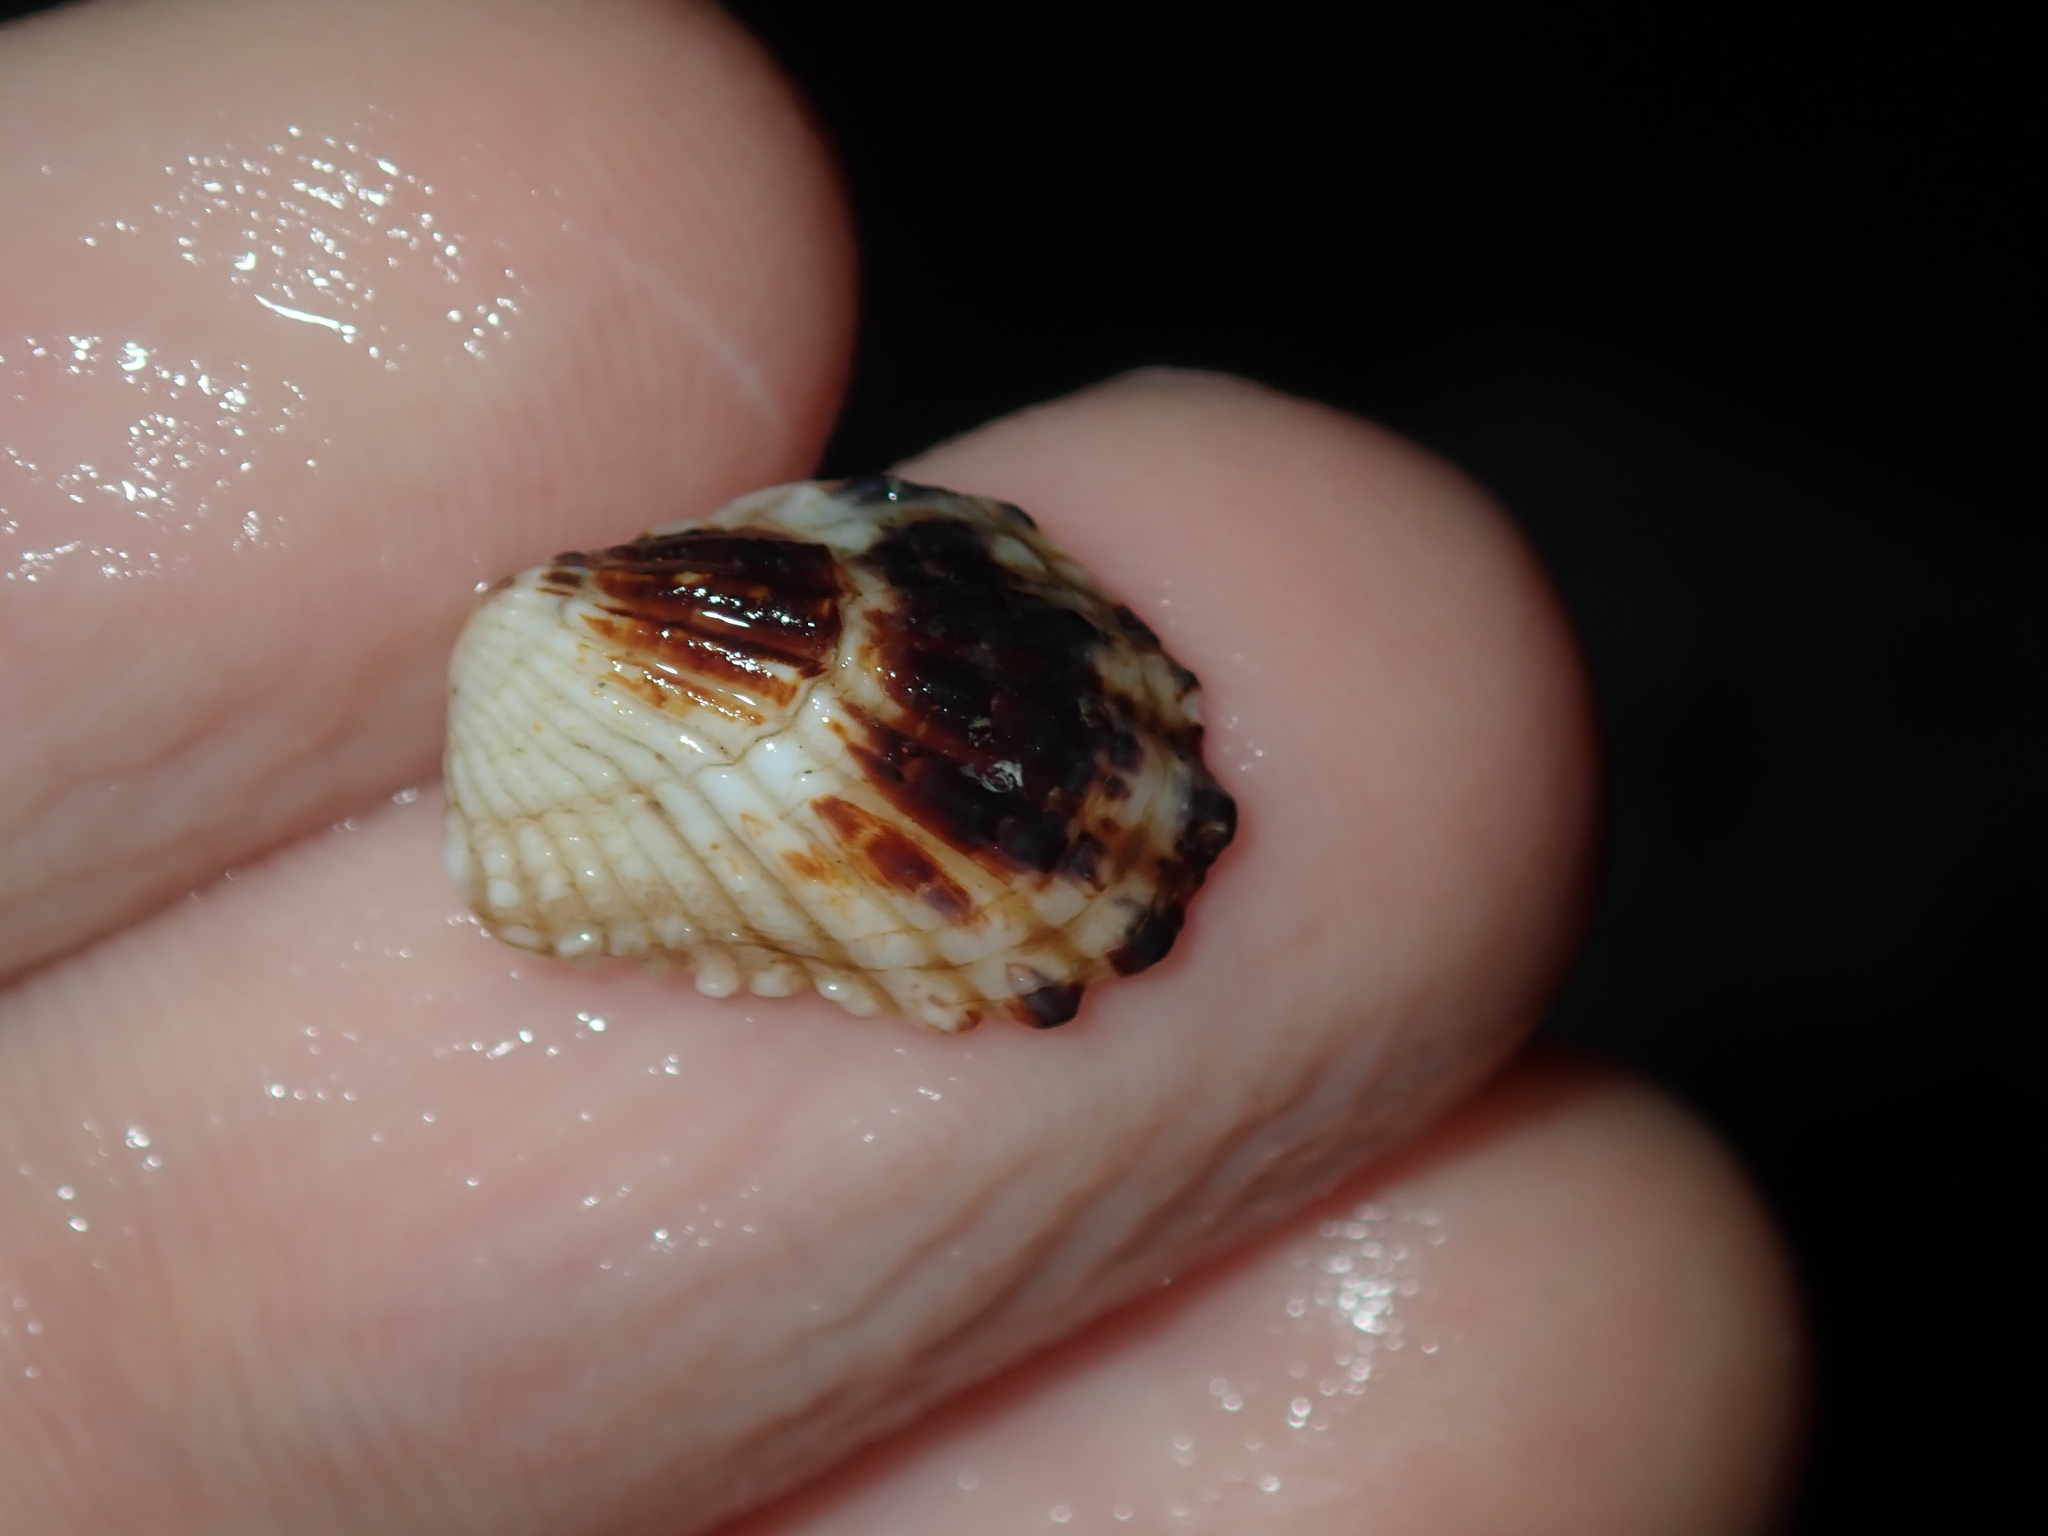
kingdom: Animalia
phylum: Mollusca
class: Bivalvia
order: Carditida
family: Carditidae
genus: Cardita
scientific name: Cardita aviculina
